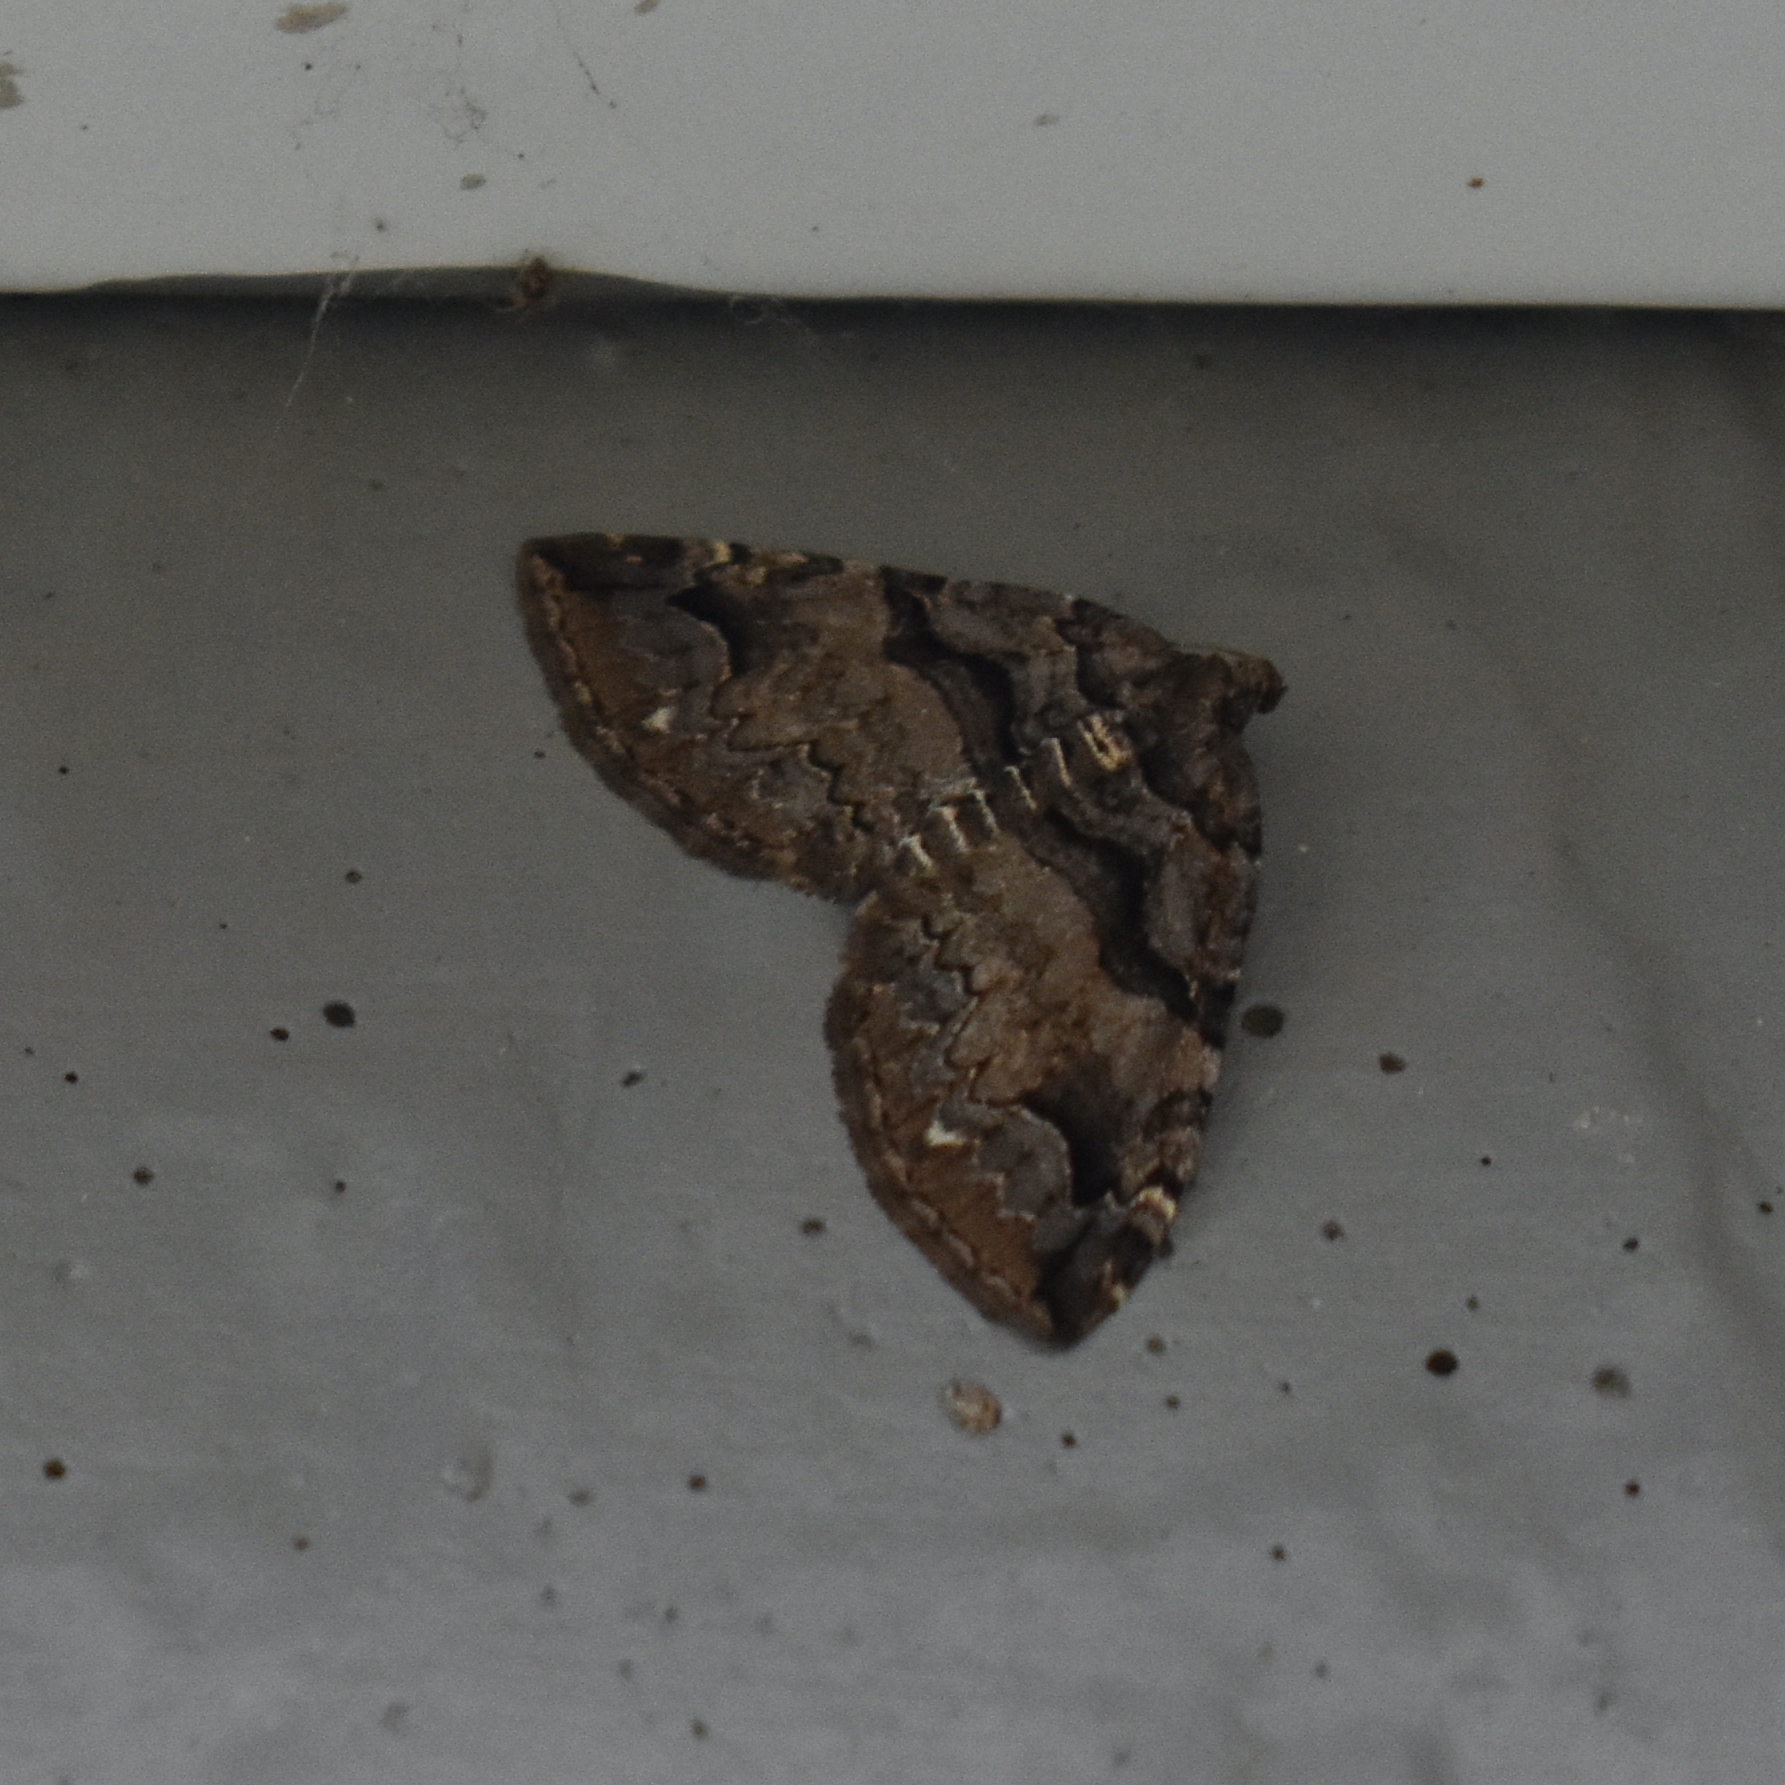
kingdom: Animalia
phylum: Arthropoda
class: Insecta
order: Lepidoptera
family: Geometridae
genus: Anticlea
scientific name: Anticlea vasiliata
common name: Variable carpet
